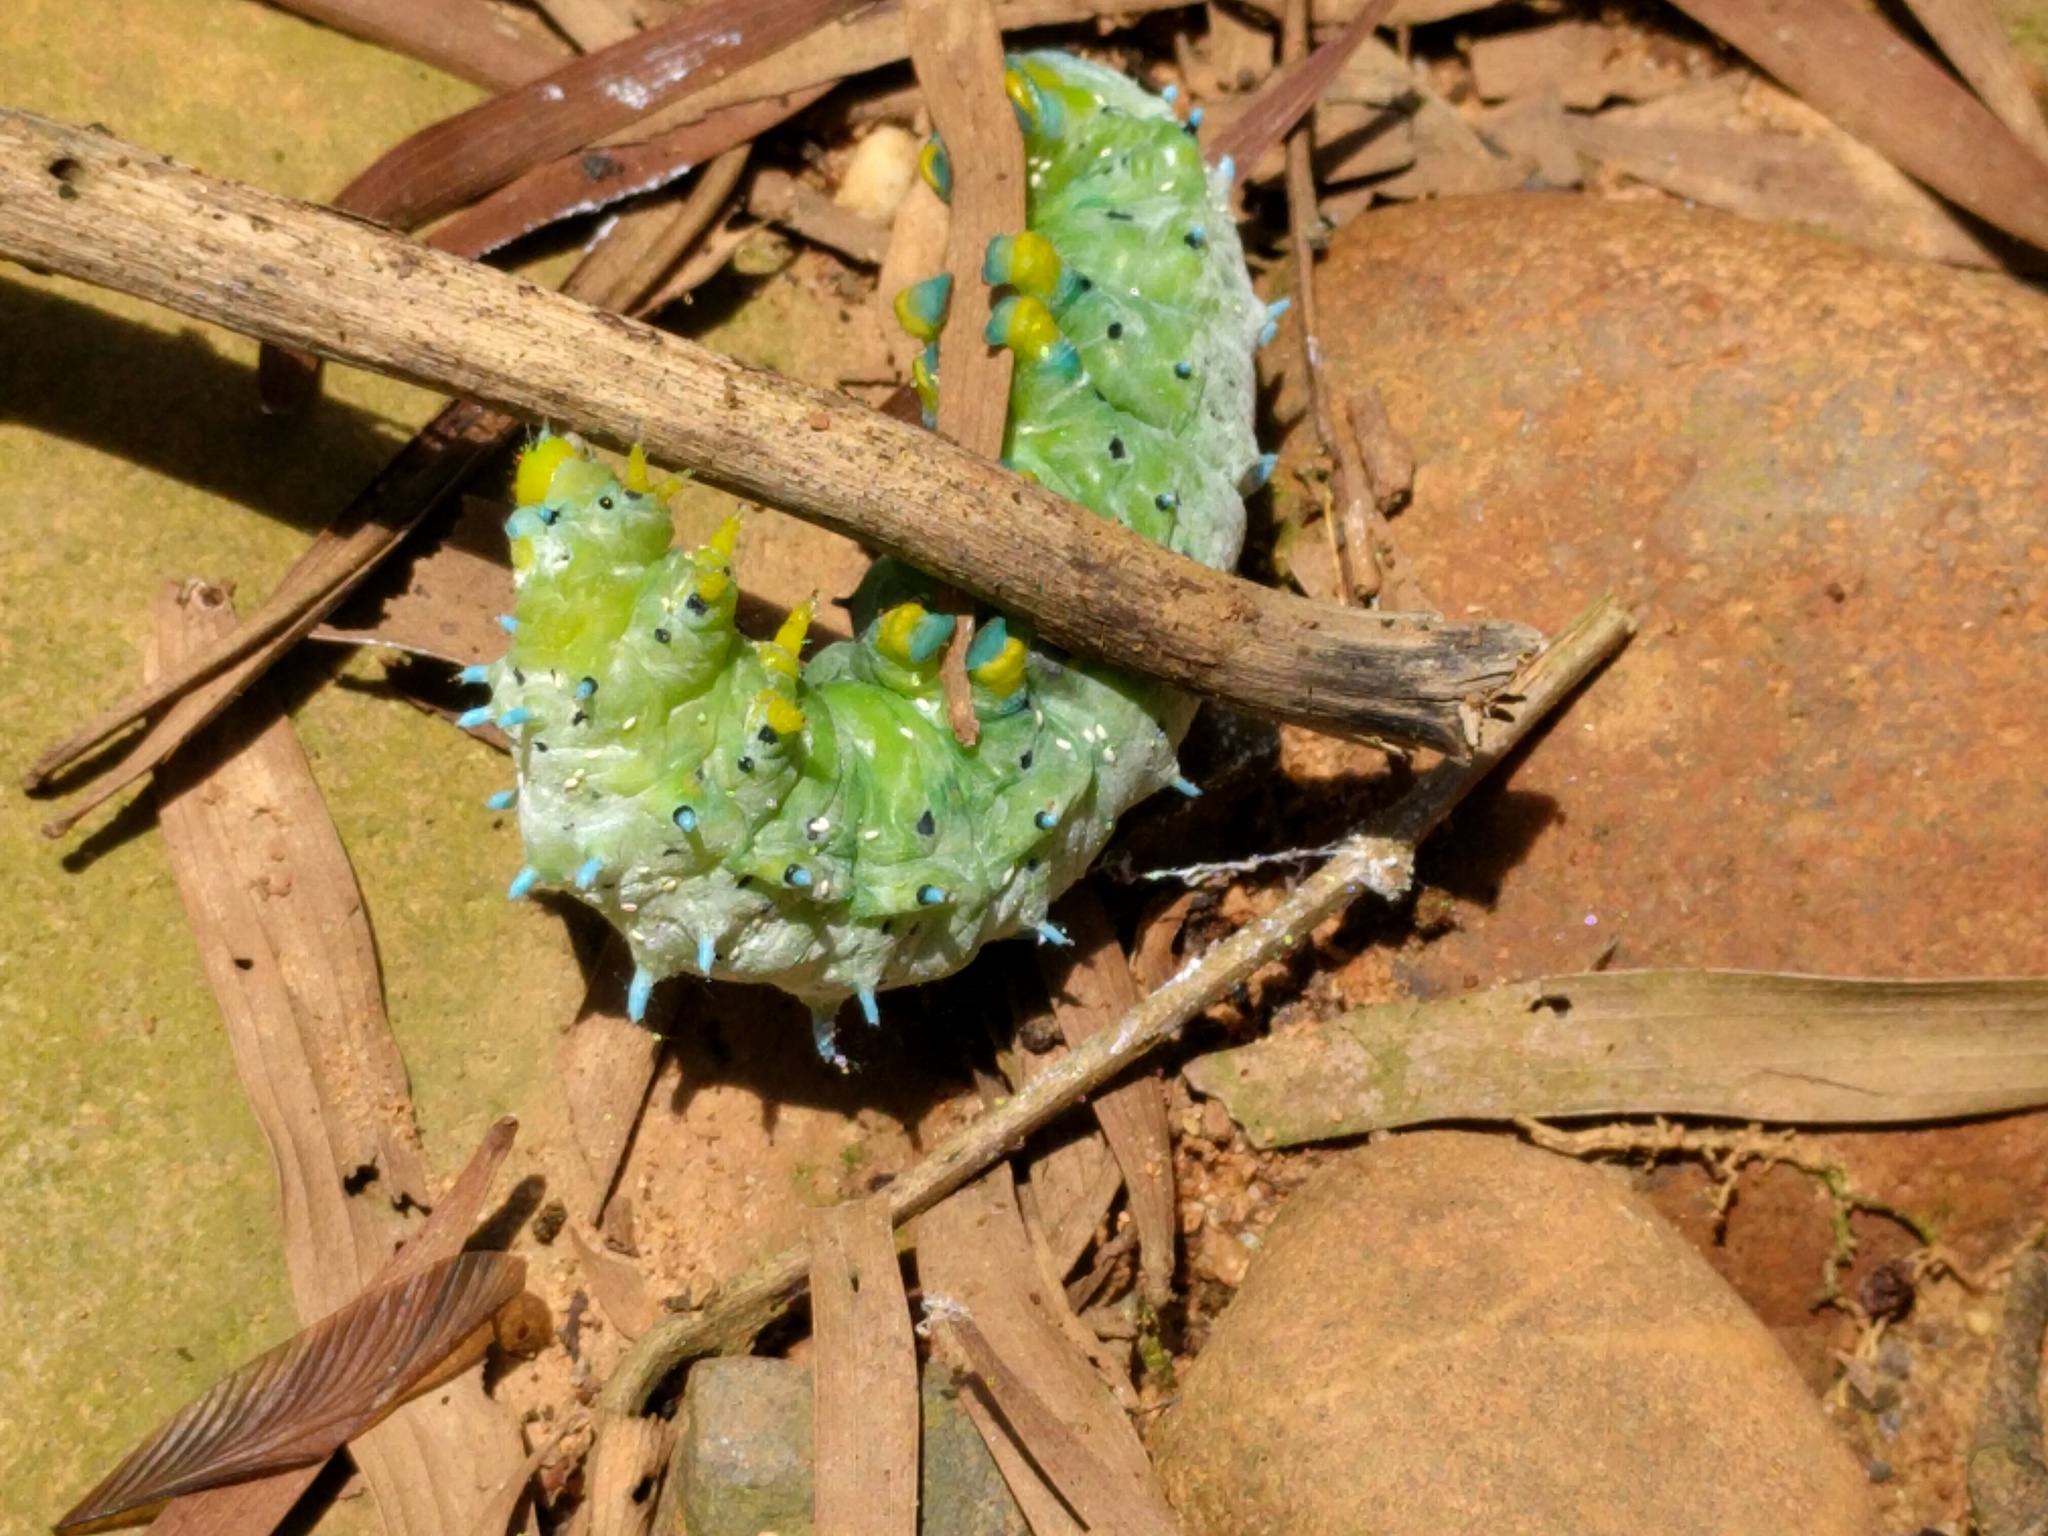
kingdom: Animalia
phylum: Arthropoda
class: Insecta
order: Lepidoptera
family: Saturniidae
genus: Samia
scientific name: Samia wangi
